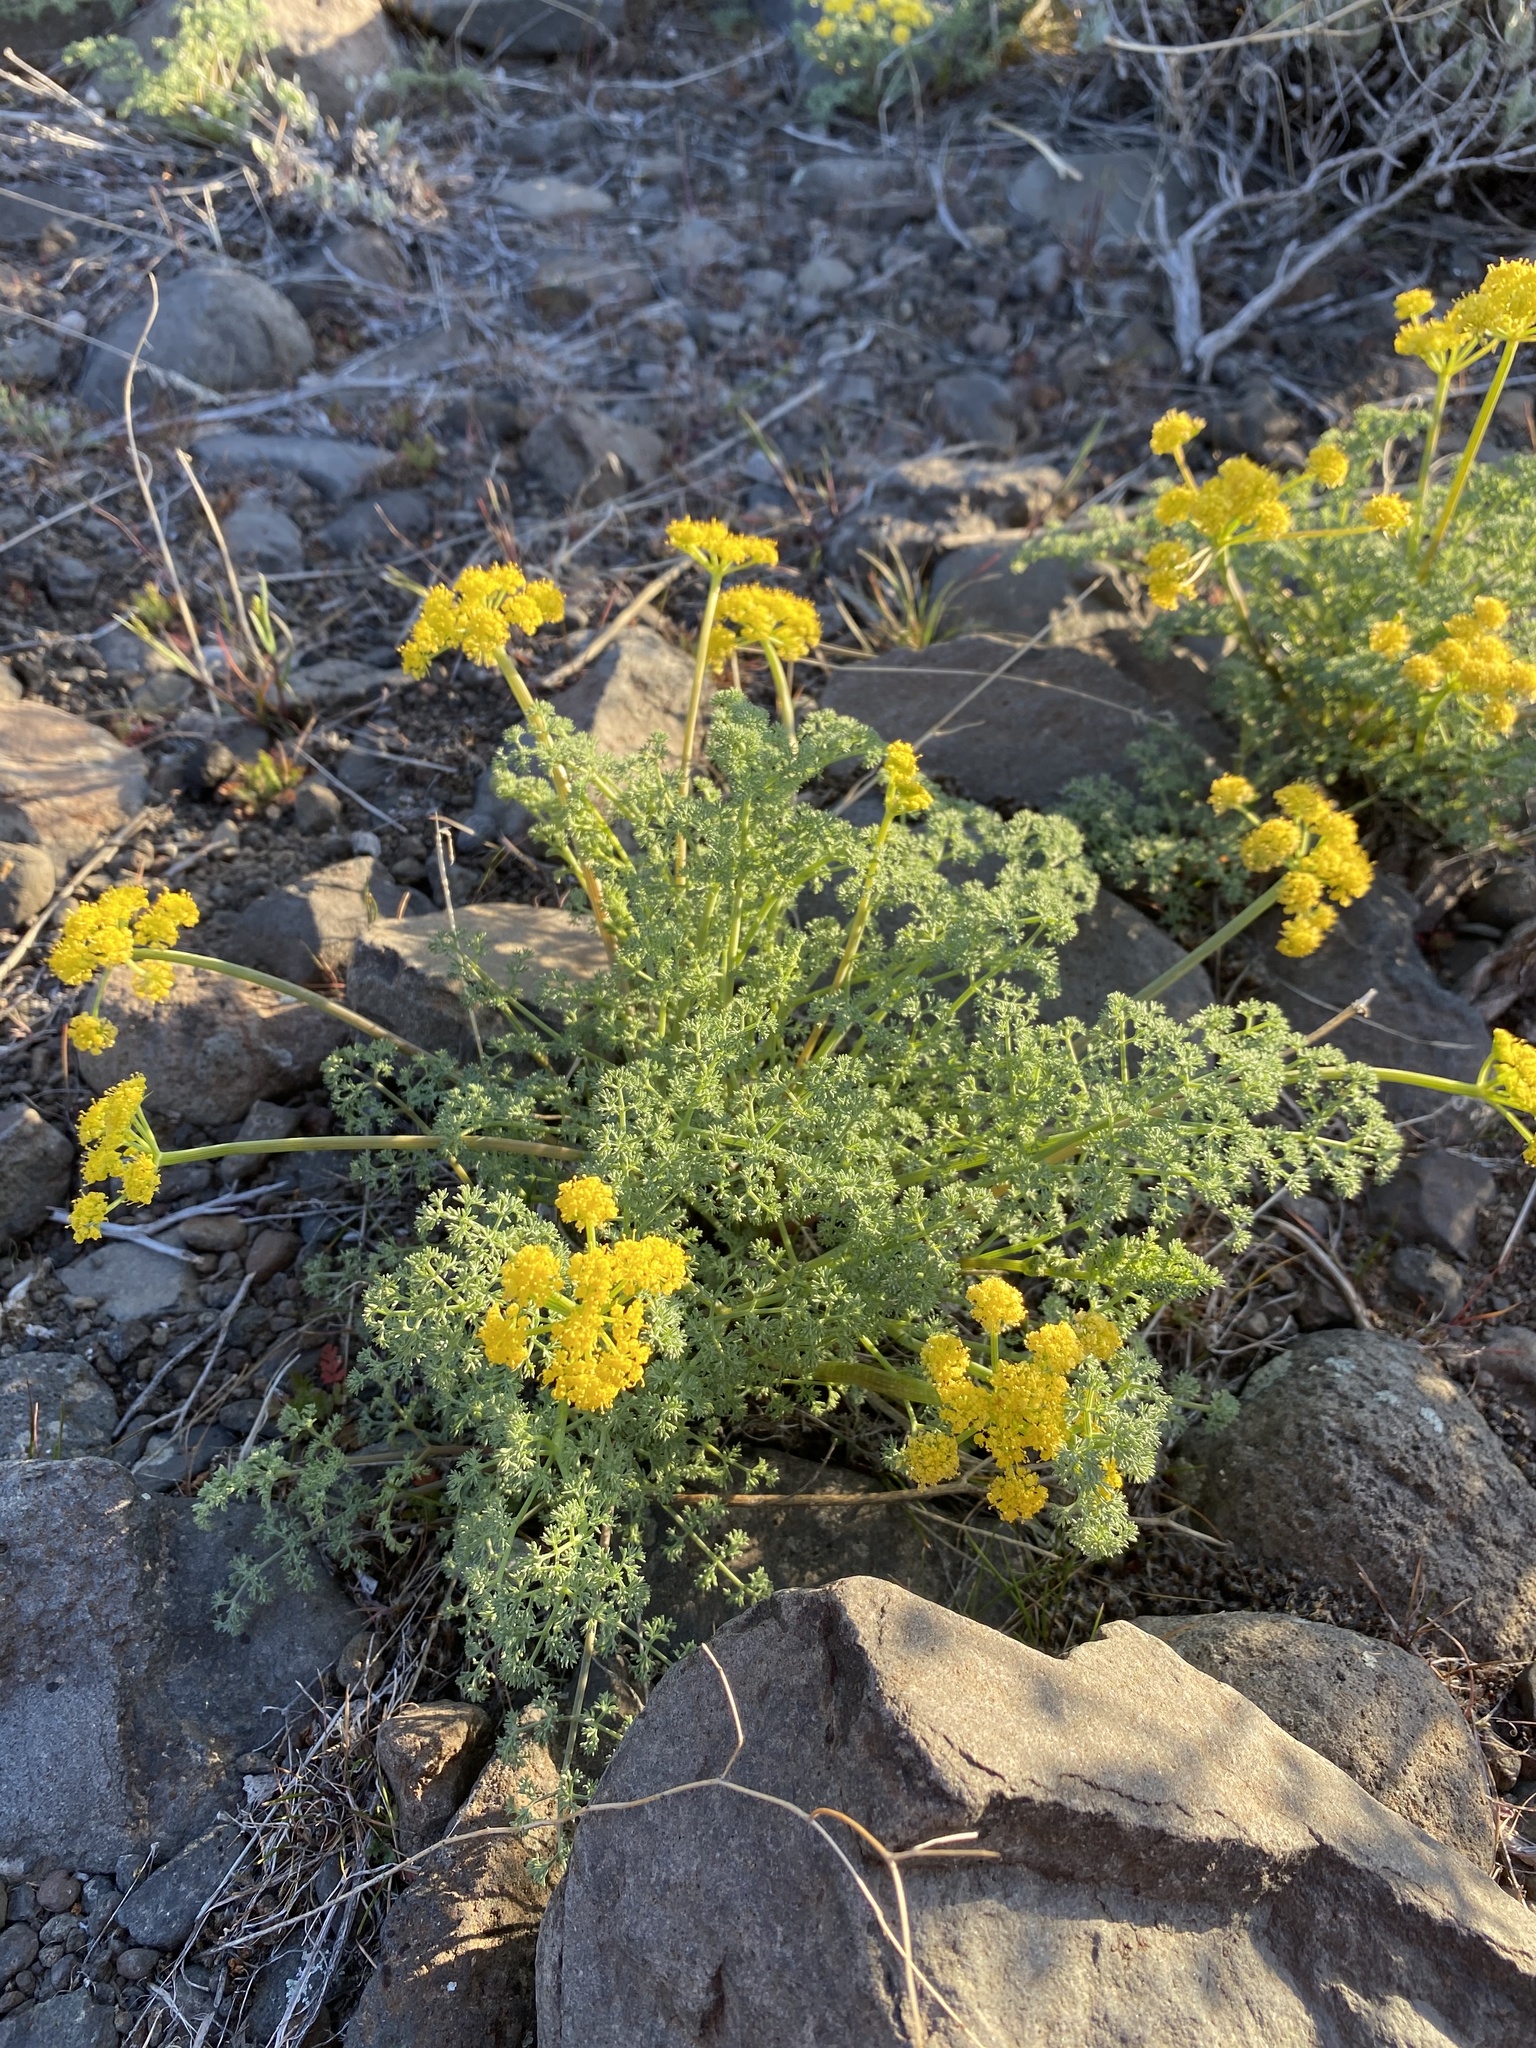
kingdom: Plantae
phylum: Tracheophyta
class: Magnoliopsida
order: Apiales
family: Apiaceae
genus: Lomatium
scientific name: Lomatium papilioniferum
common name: Butterfly lomatium
